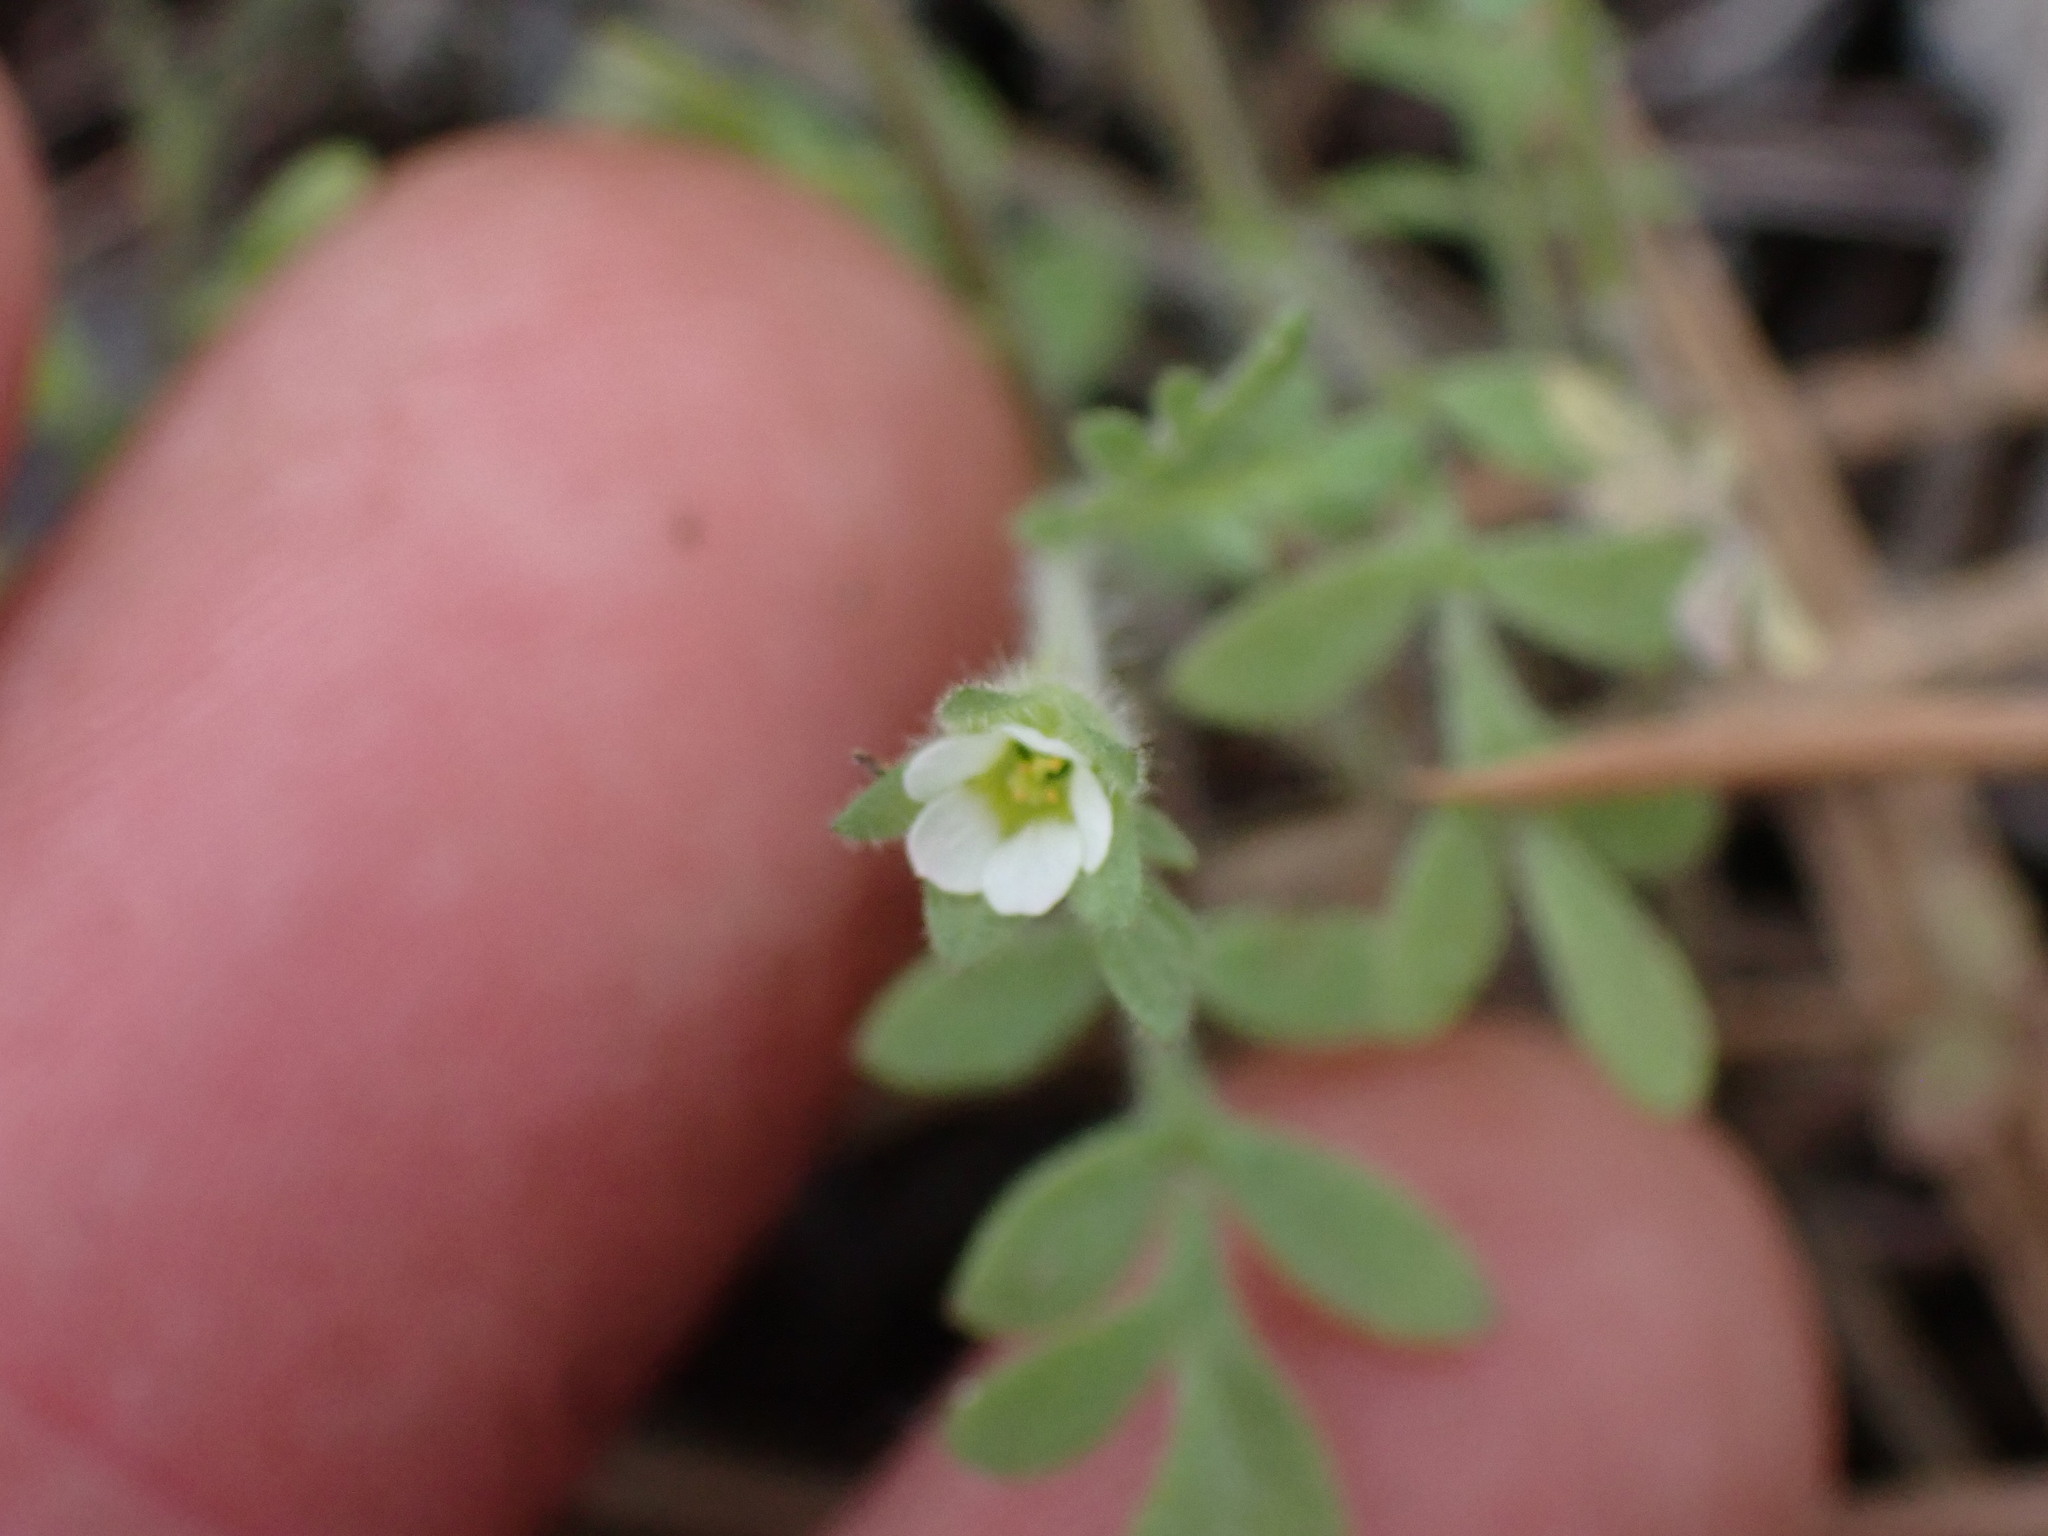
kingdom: Plantae
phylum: Tracheophyta
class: Magnoliopsida
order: Ericales
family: Polemoniaceae
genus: Polemonium
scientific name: Polemonium micranthum
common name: Annual jacob's-ladder
